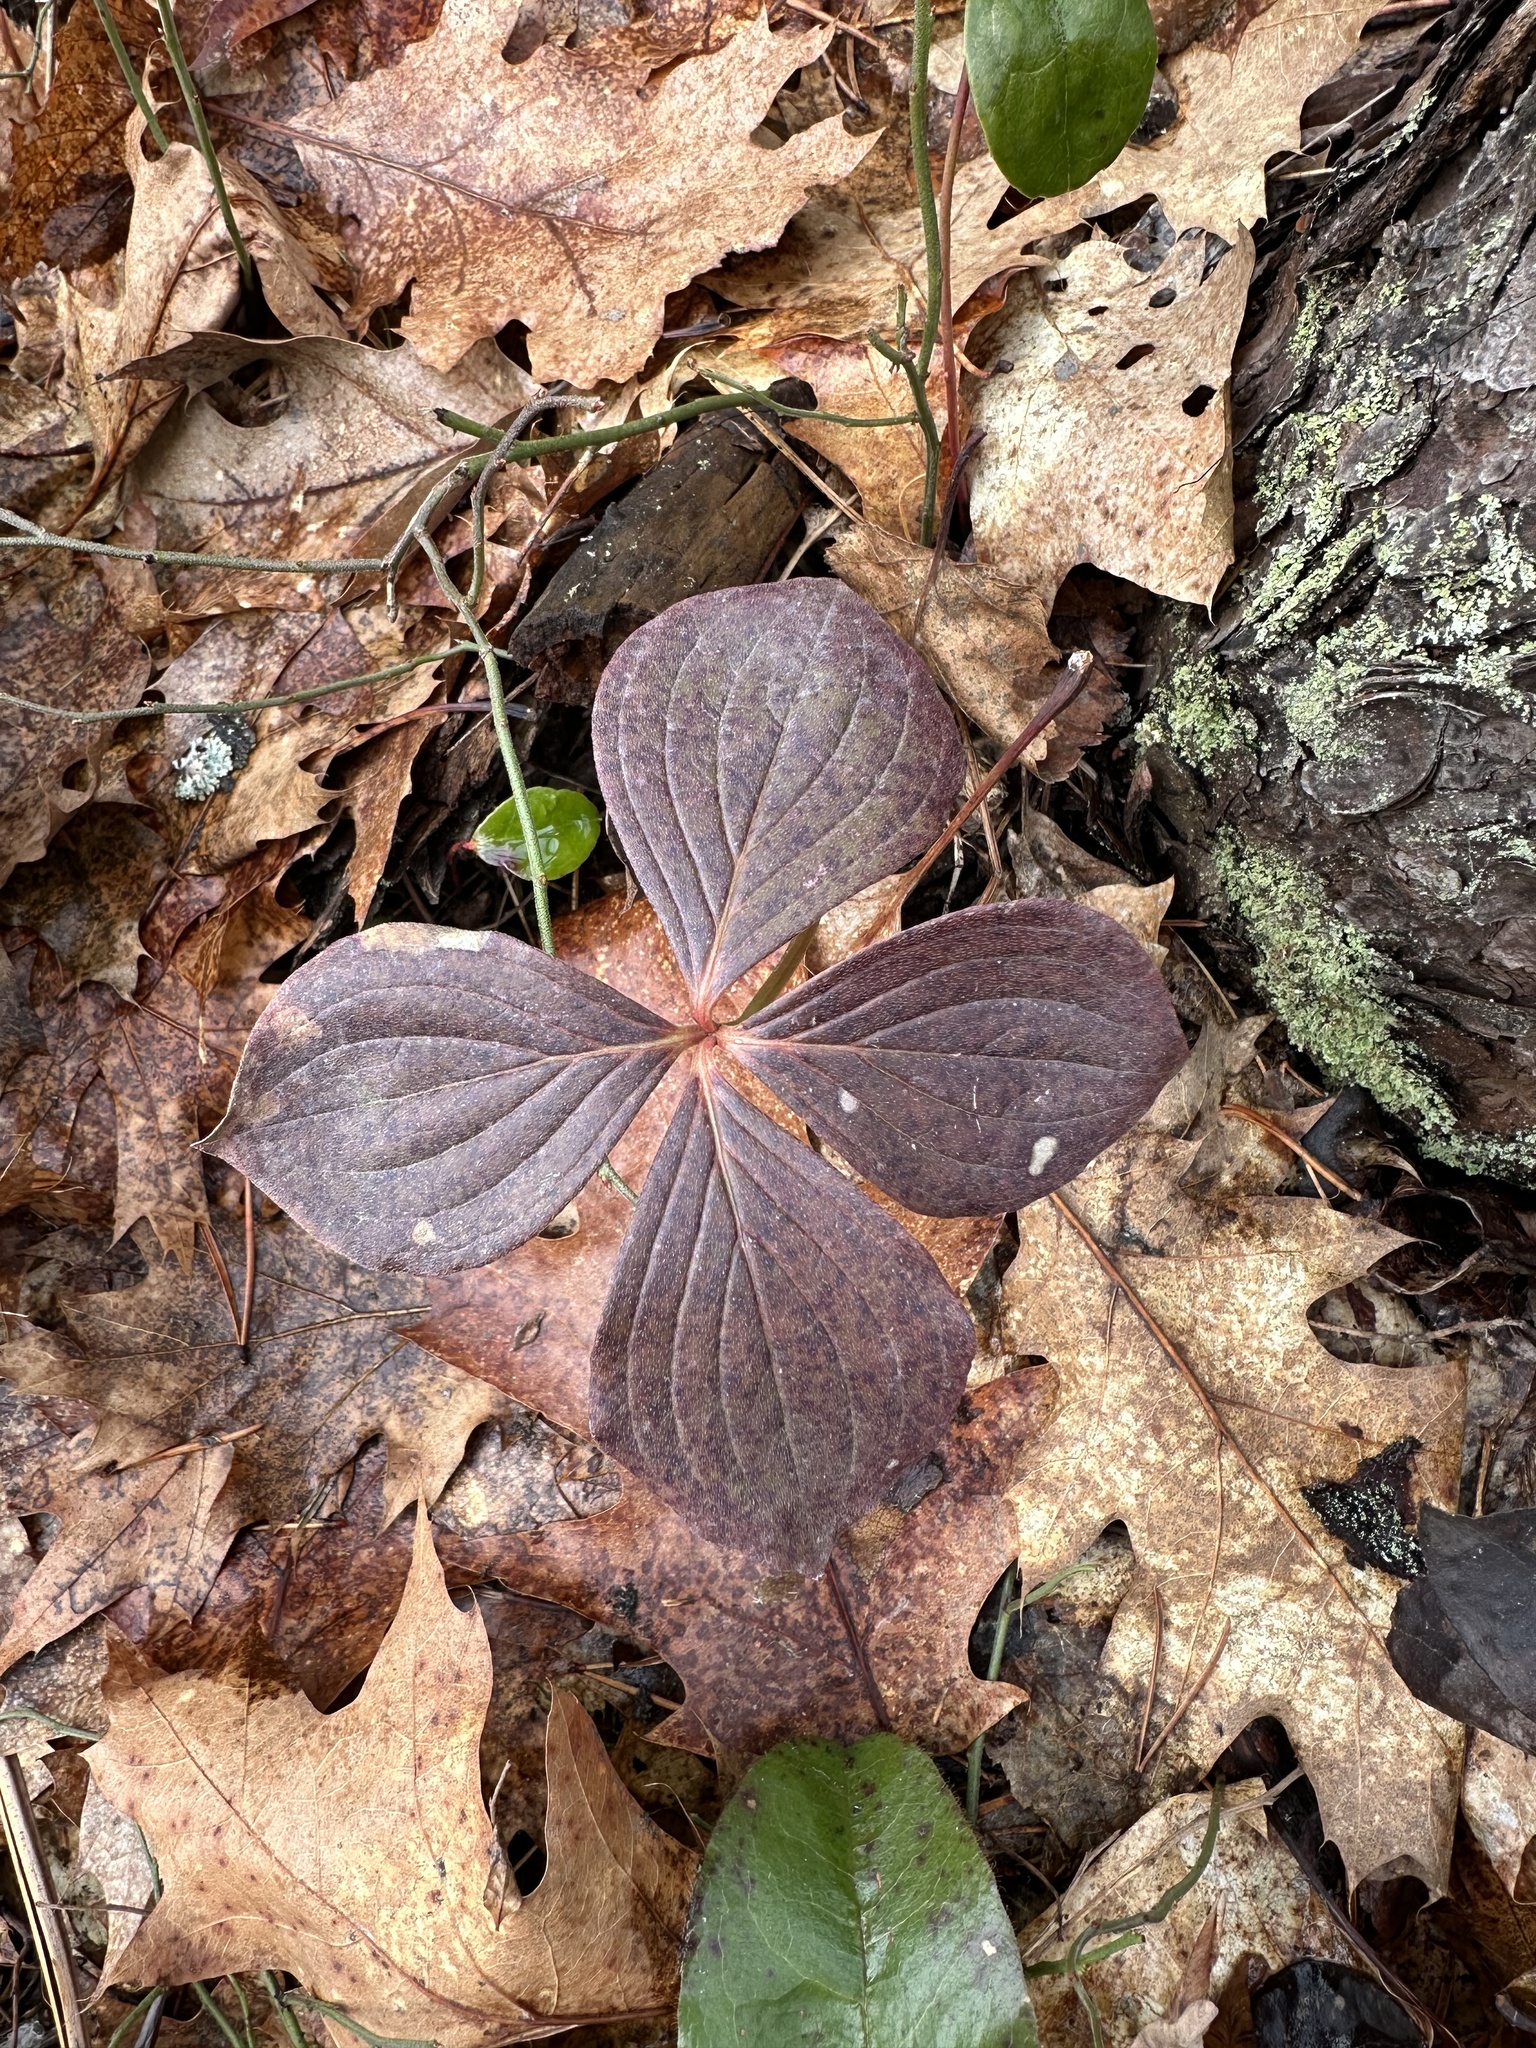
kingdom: Plantae
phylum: Tracheophyta
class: Magnoliopsida
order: Cornales
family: Cornaceae
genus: Cornus
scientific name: Cornus canadensis
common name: Creeping dogwood
